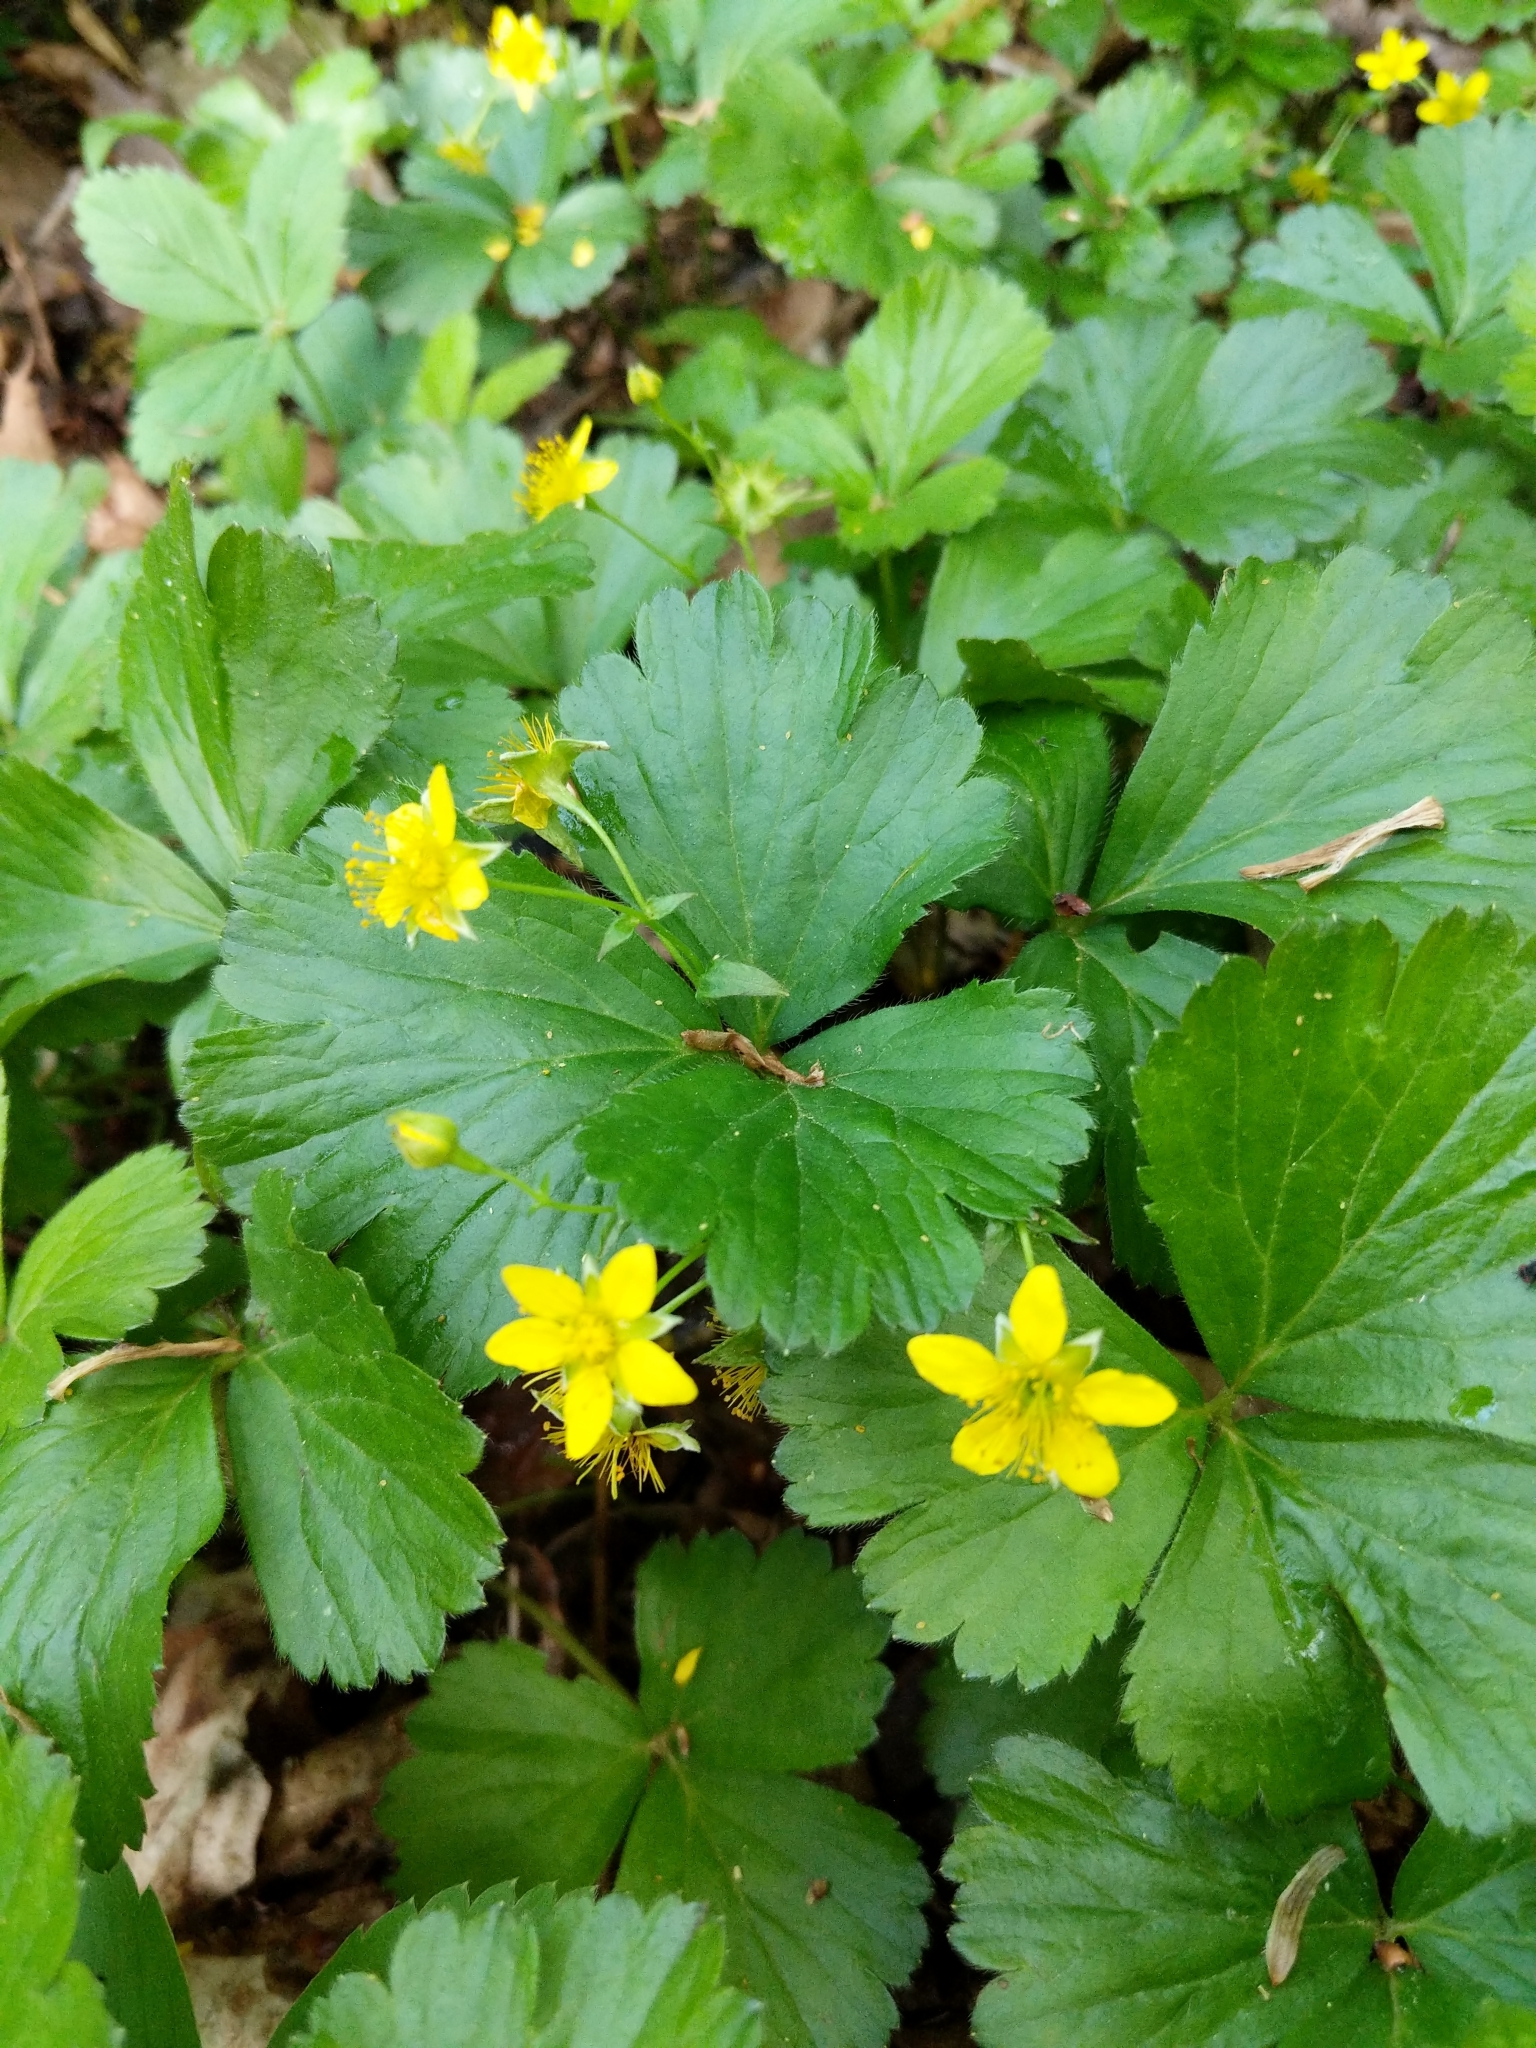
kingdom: Plantae
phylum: Tracheophyta
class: Magnoliopsida
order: Rosales
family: Rosaceae
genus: Geum
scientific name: Geum fragarioides
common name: Appalachian barren strawberry
